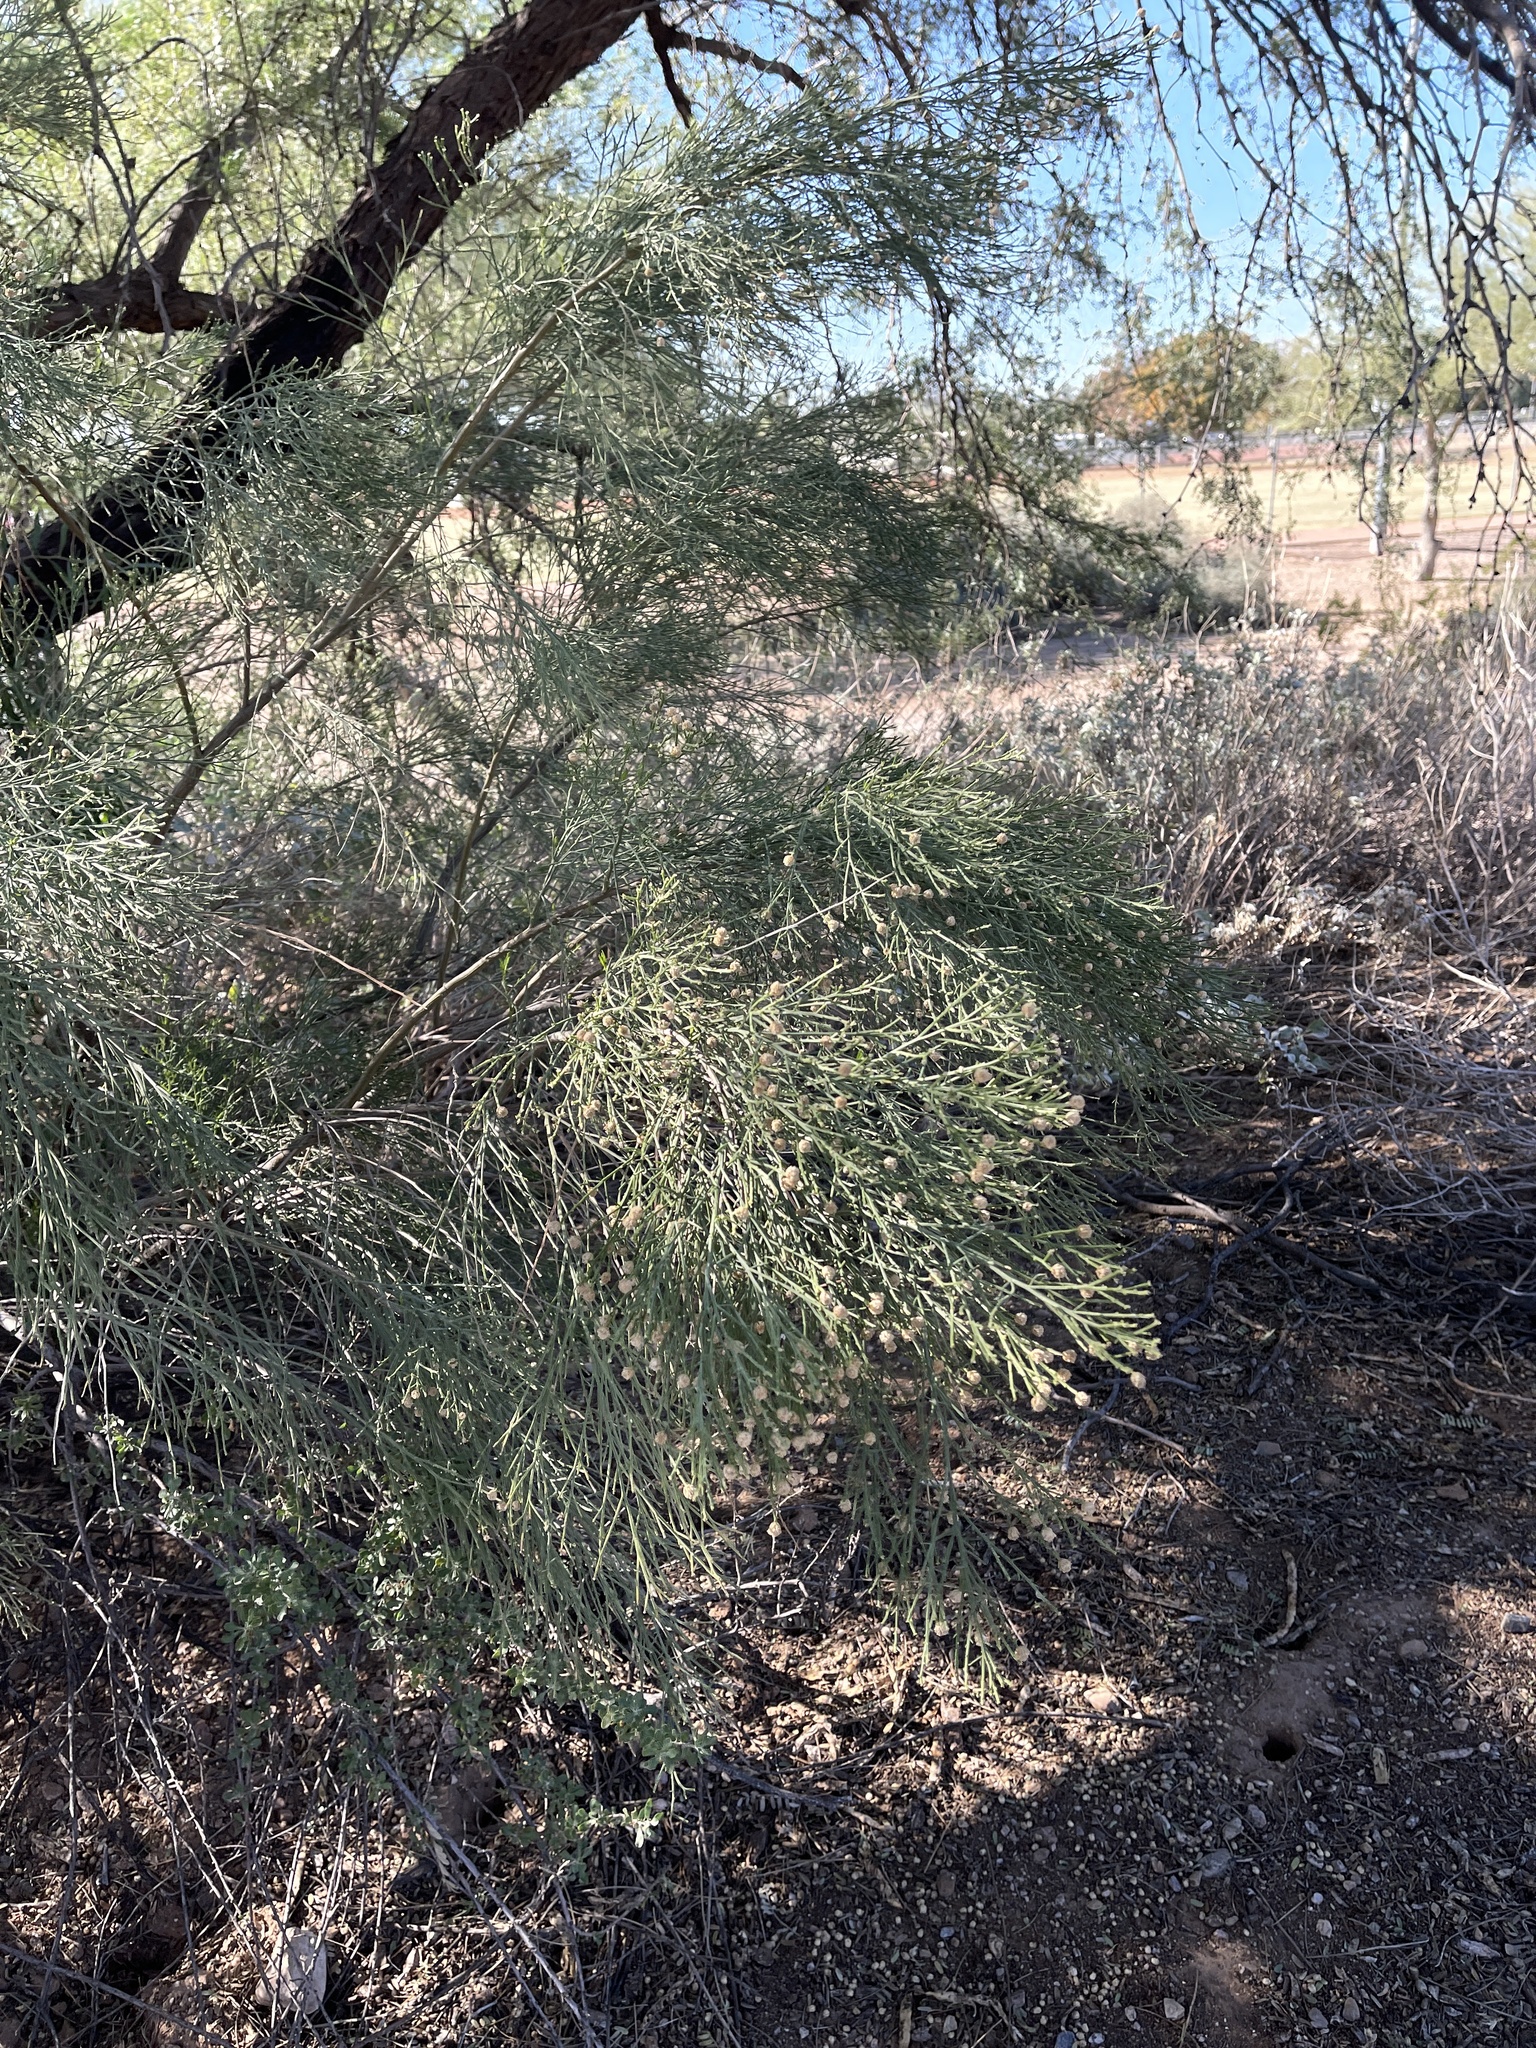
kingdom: Plantae
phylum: Tracheophyta
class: Magnoliopsida
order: Asterales
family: Asteraceae
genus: Baccharis
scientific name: Baccharis sarothroides
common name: Desert-broom
